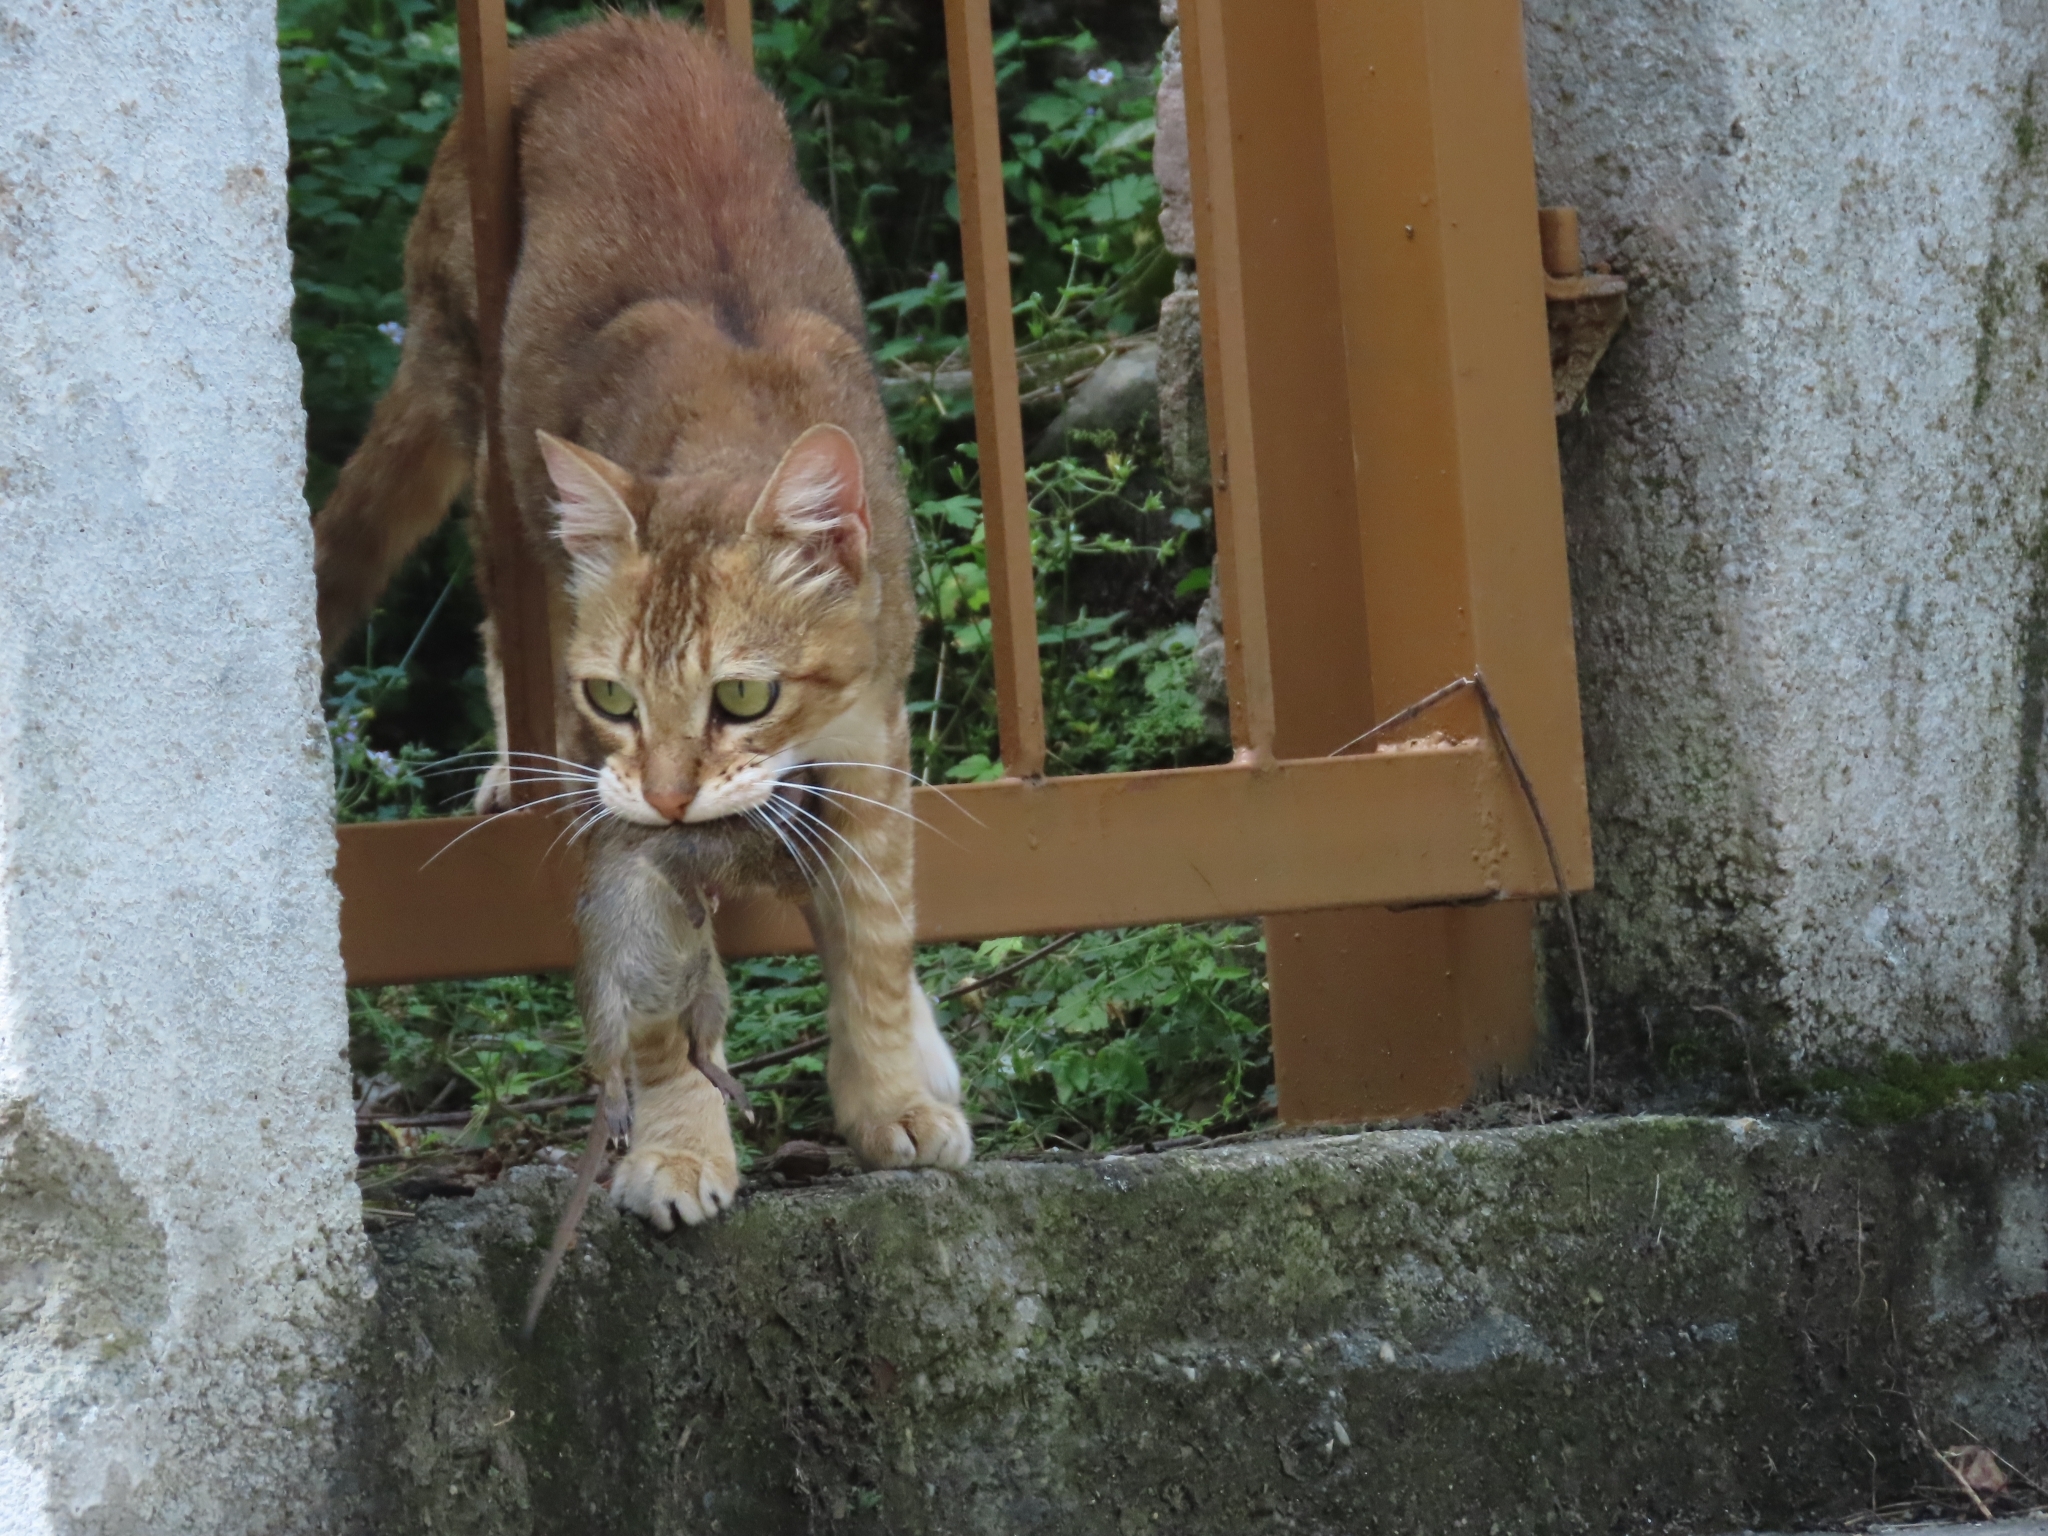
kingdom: Animalia
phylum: Chordata
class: Mammalia
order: Carnivora
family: Felidae
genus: Felis
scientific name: Felis catus
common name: Domestic cat
